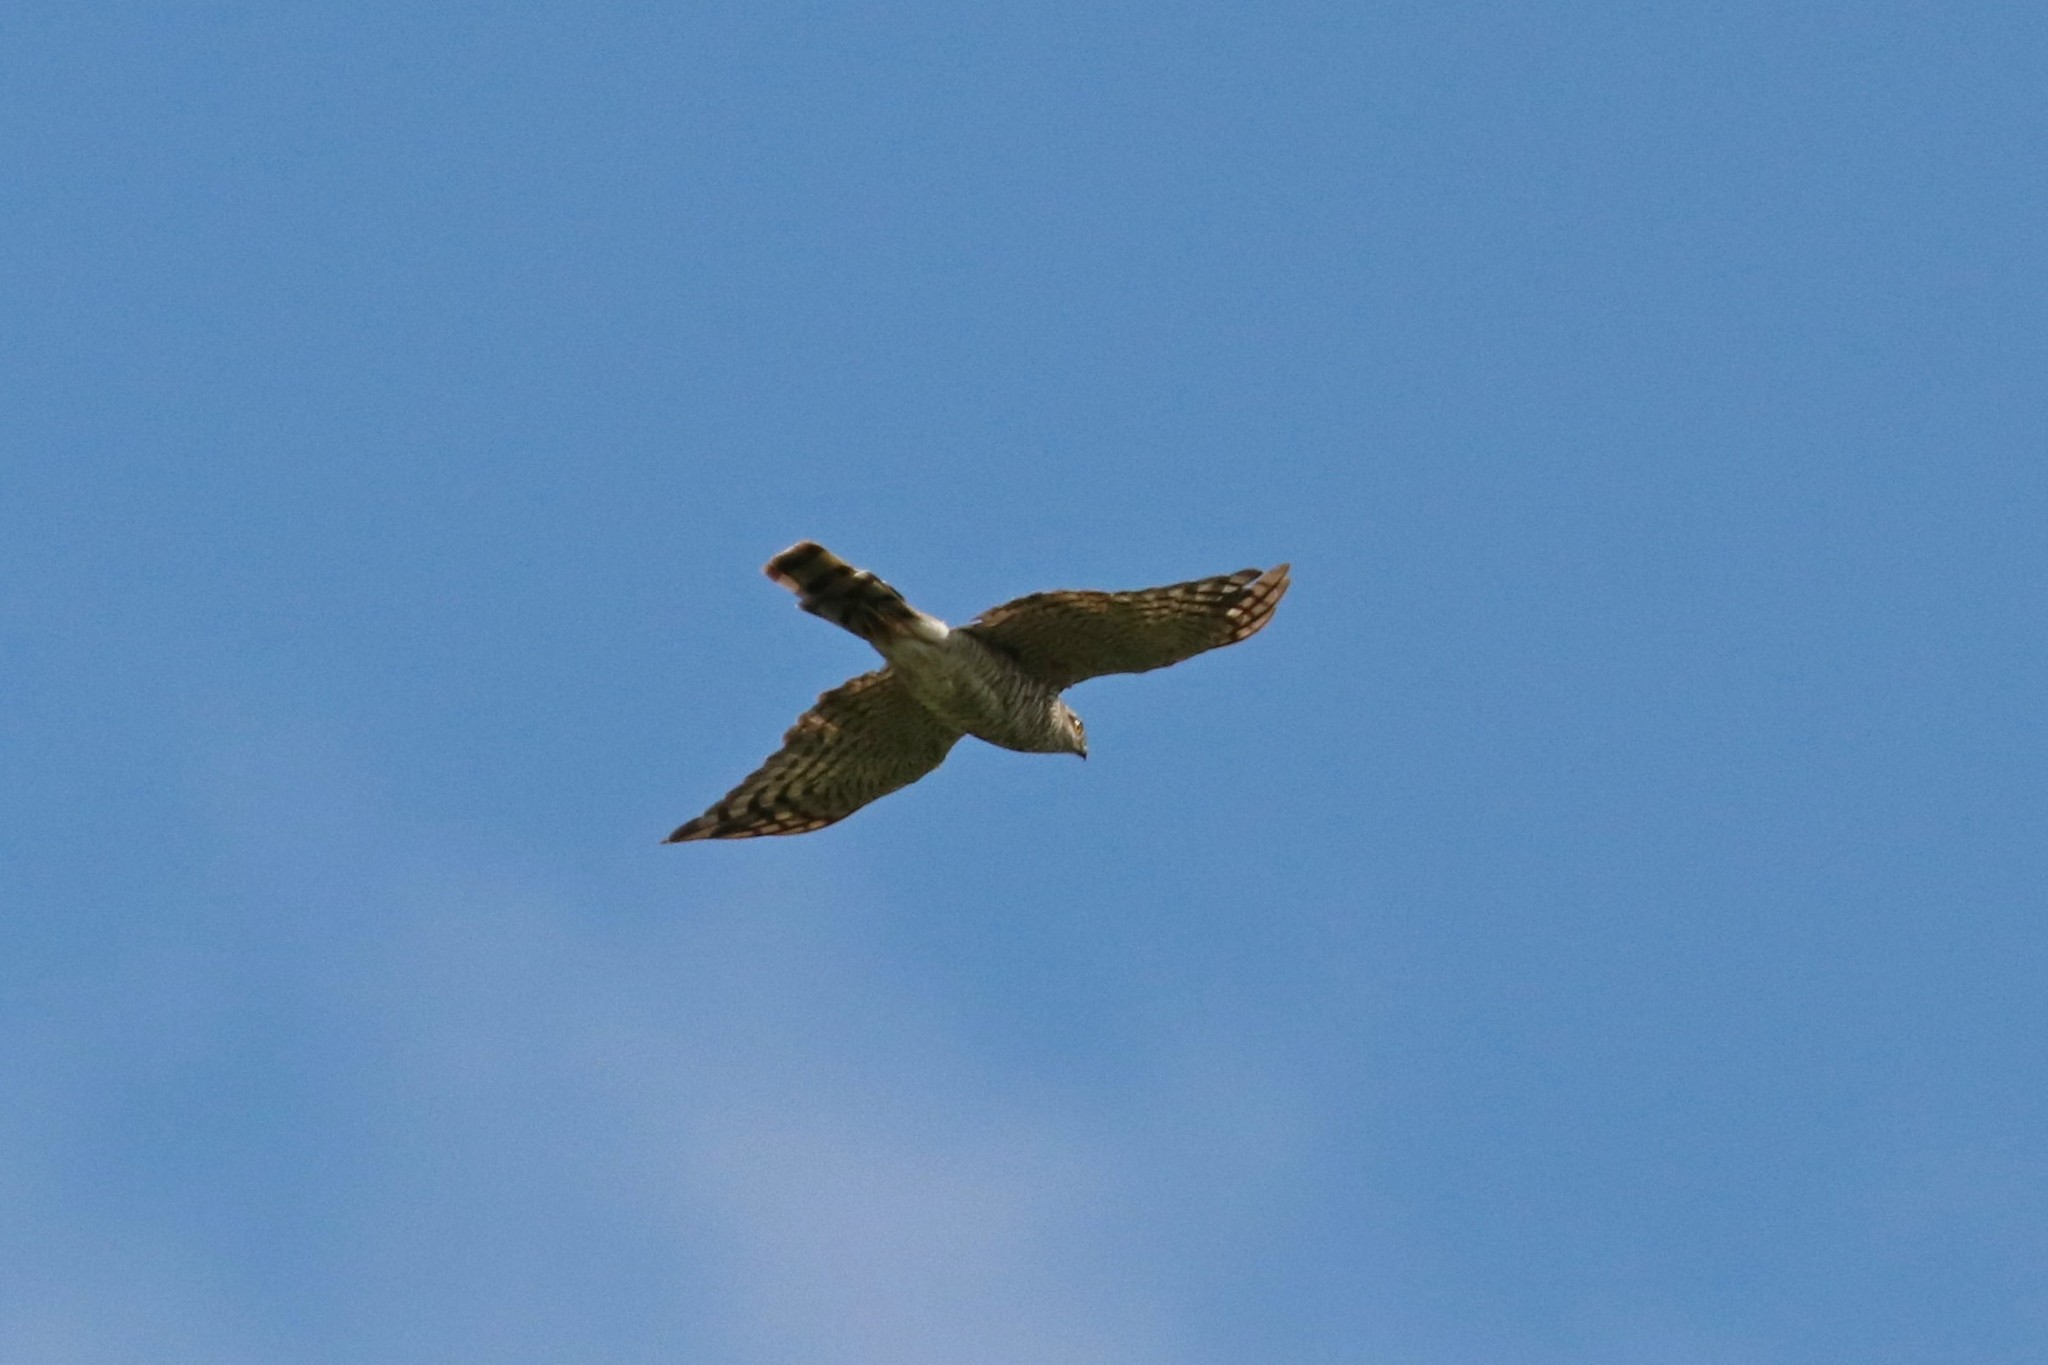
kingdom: Animalia
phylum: Chordata
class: Aves
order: Accipitriformes
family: Accipitridae
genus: Accipiter
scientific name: Accipiter nisus
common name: Eurasian sparrowhawk
